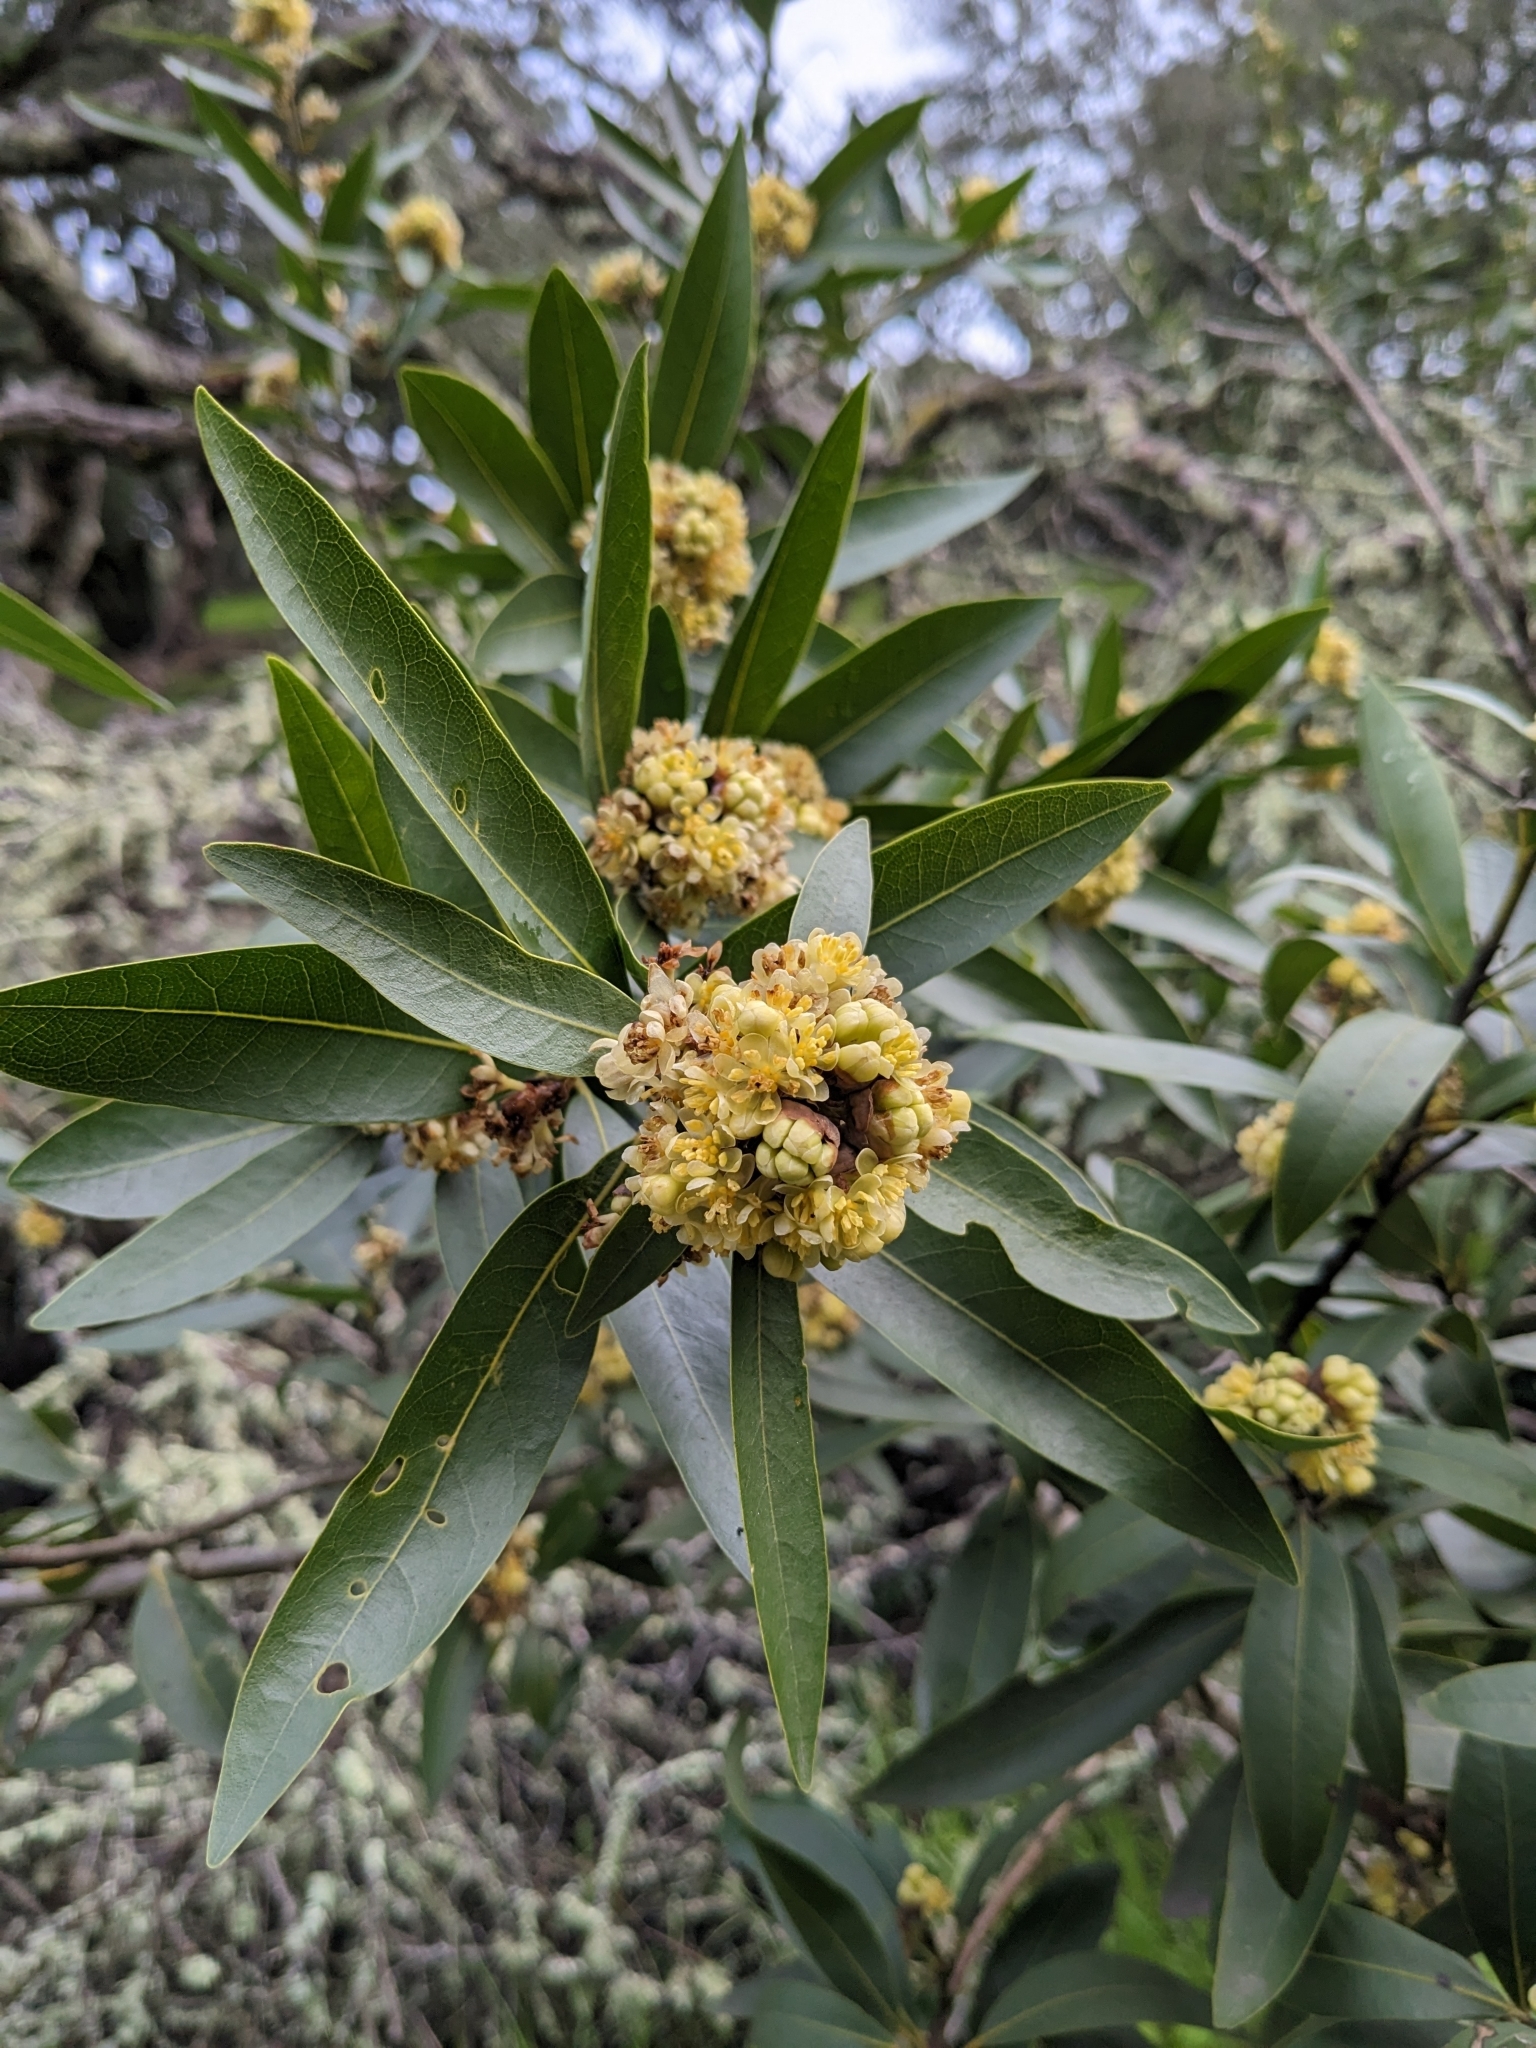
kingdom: Plantae
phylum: Tracheophyta
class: Magnoliopsida
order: Laurales
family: Lauraceae
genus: Umbellularia
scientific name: Umbellularia californica
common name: California bay
